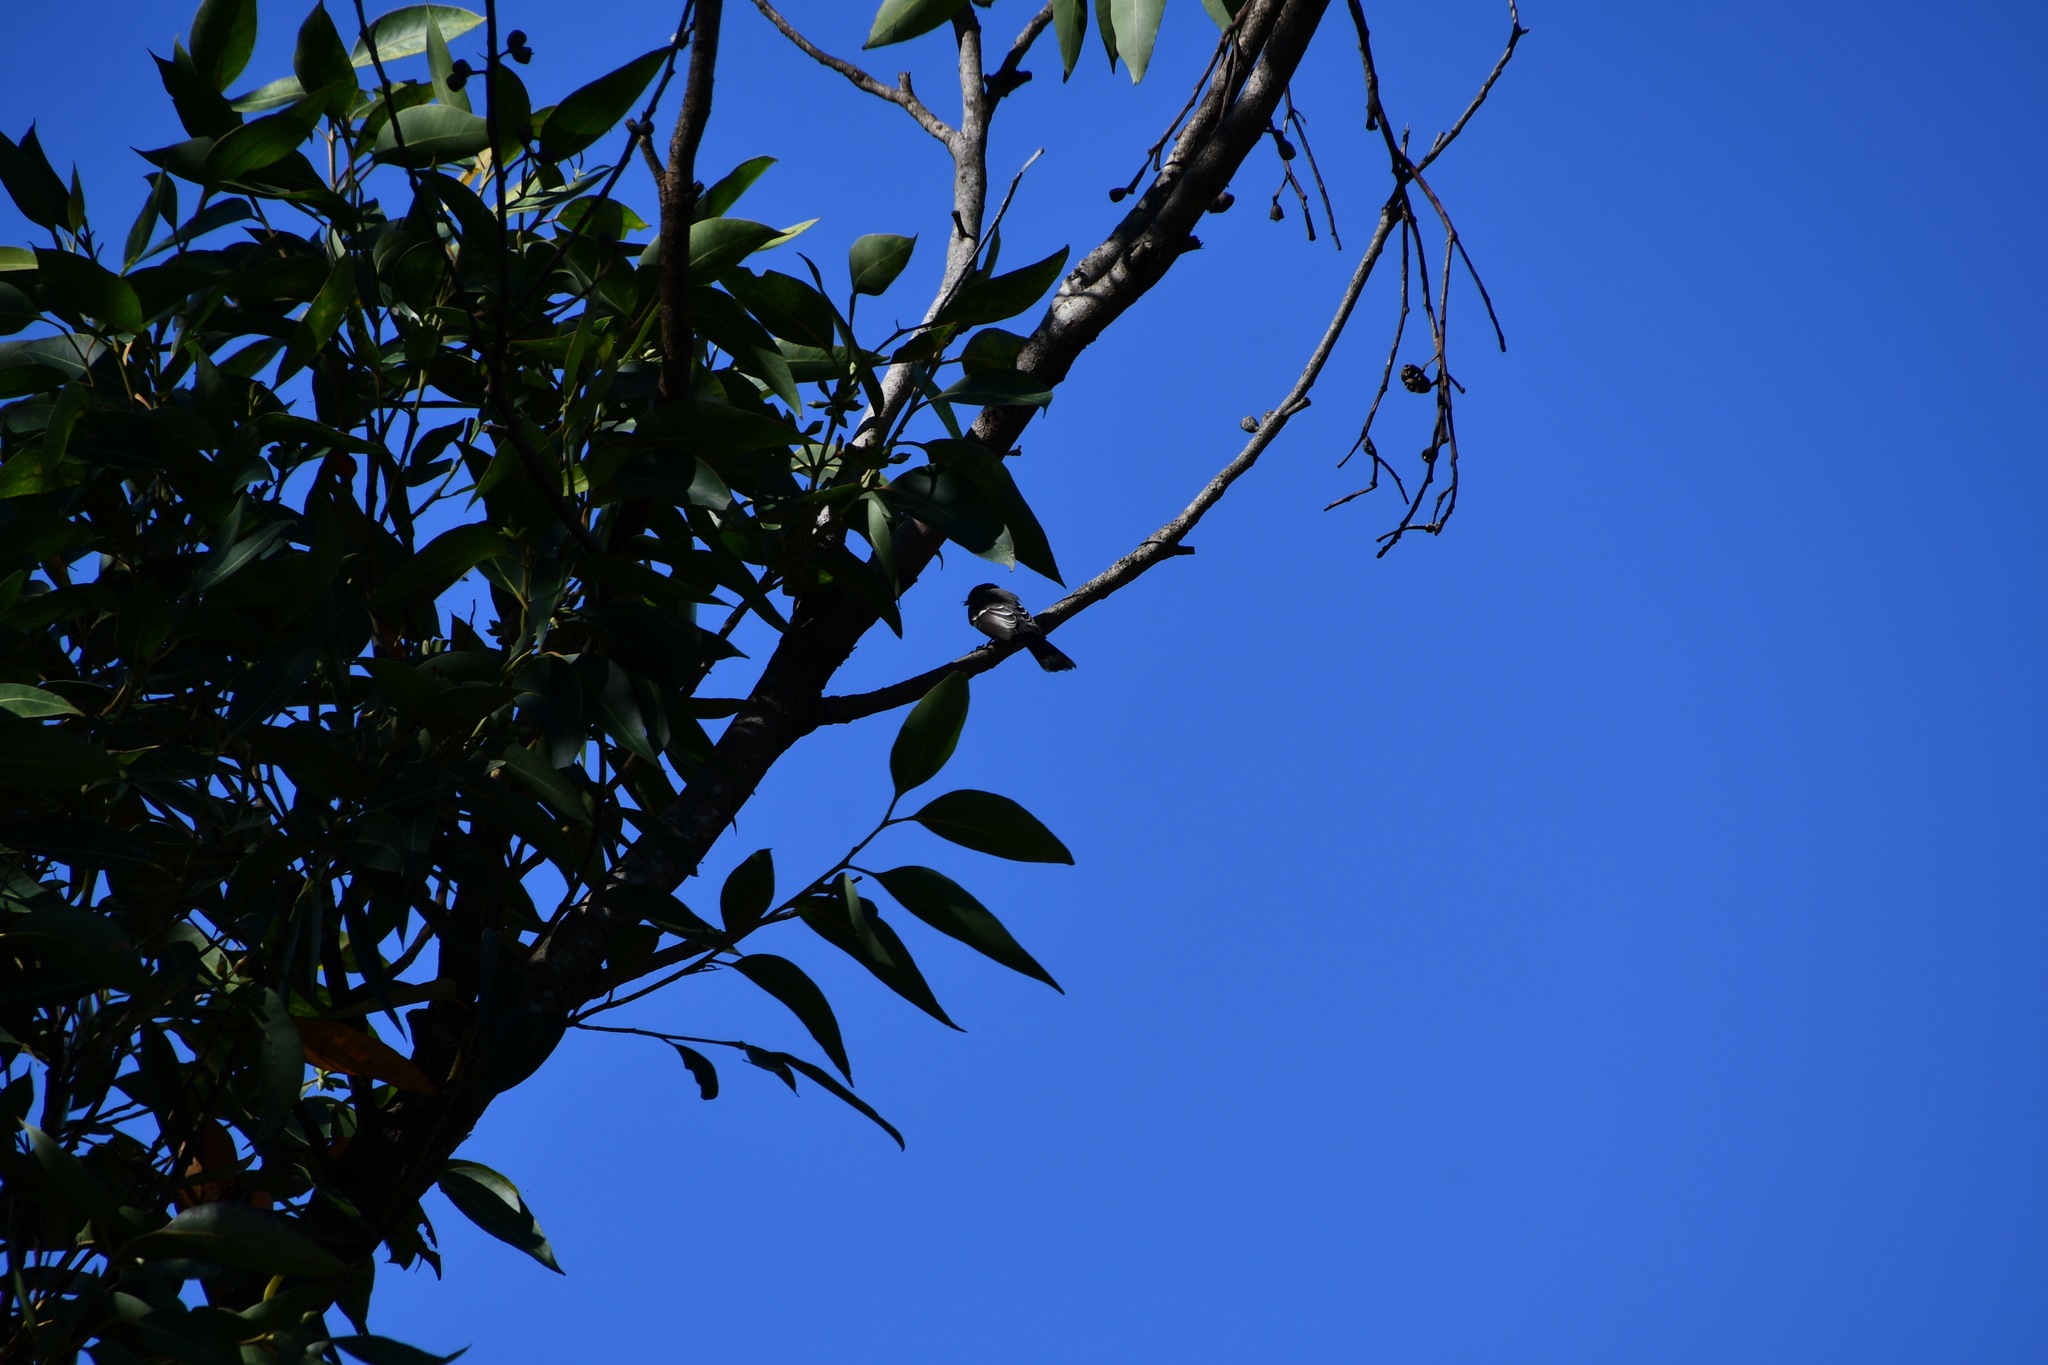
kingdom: Animalia
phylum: Chordata
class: Aves
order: Passeriformes
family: Rhipiduridae
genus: Rhipidura
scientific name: Rhipidura albiscapa
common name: Grey fantail
